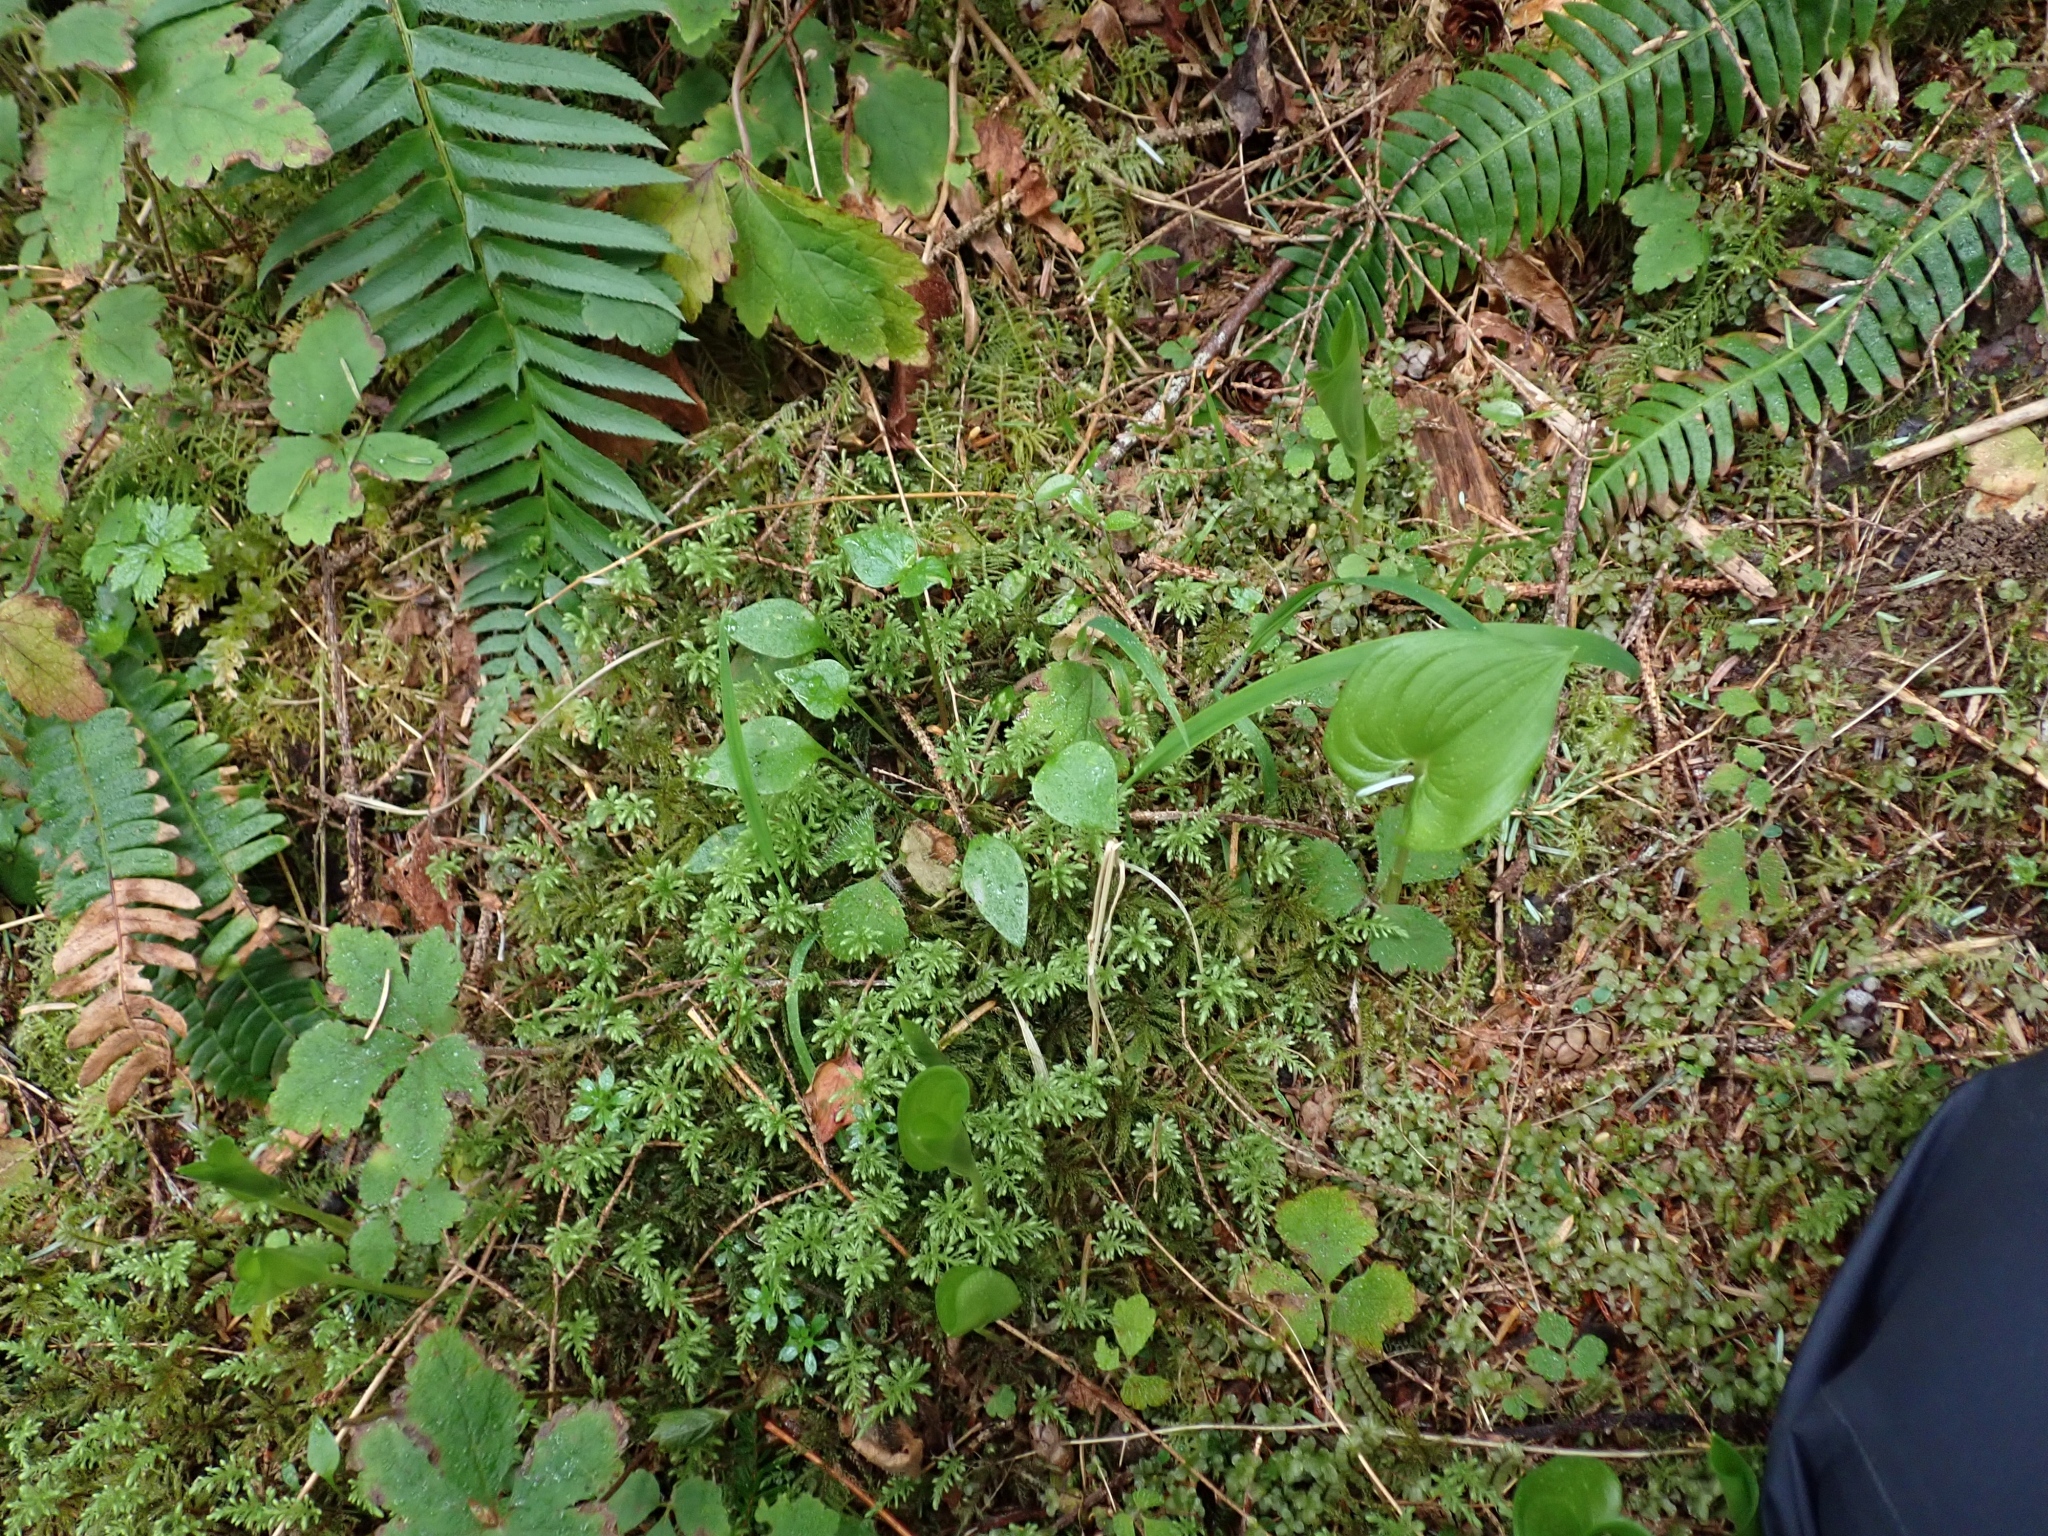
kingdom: Plantae
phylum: Tracheophyta
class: Magnoliopsida
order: Caryophyllales
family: Montiaceae
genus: Claytonia
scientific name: Claytonia sibirica
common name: Pink purslane
